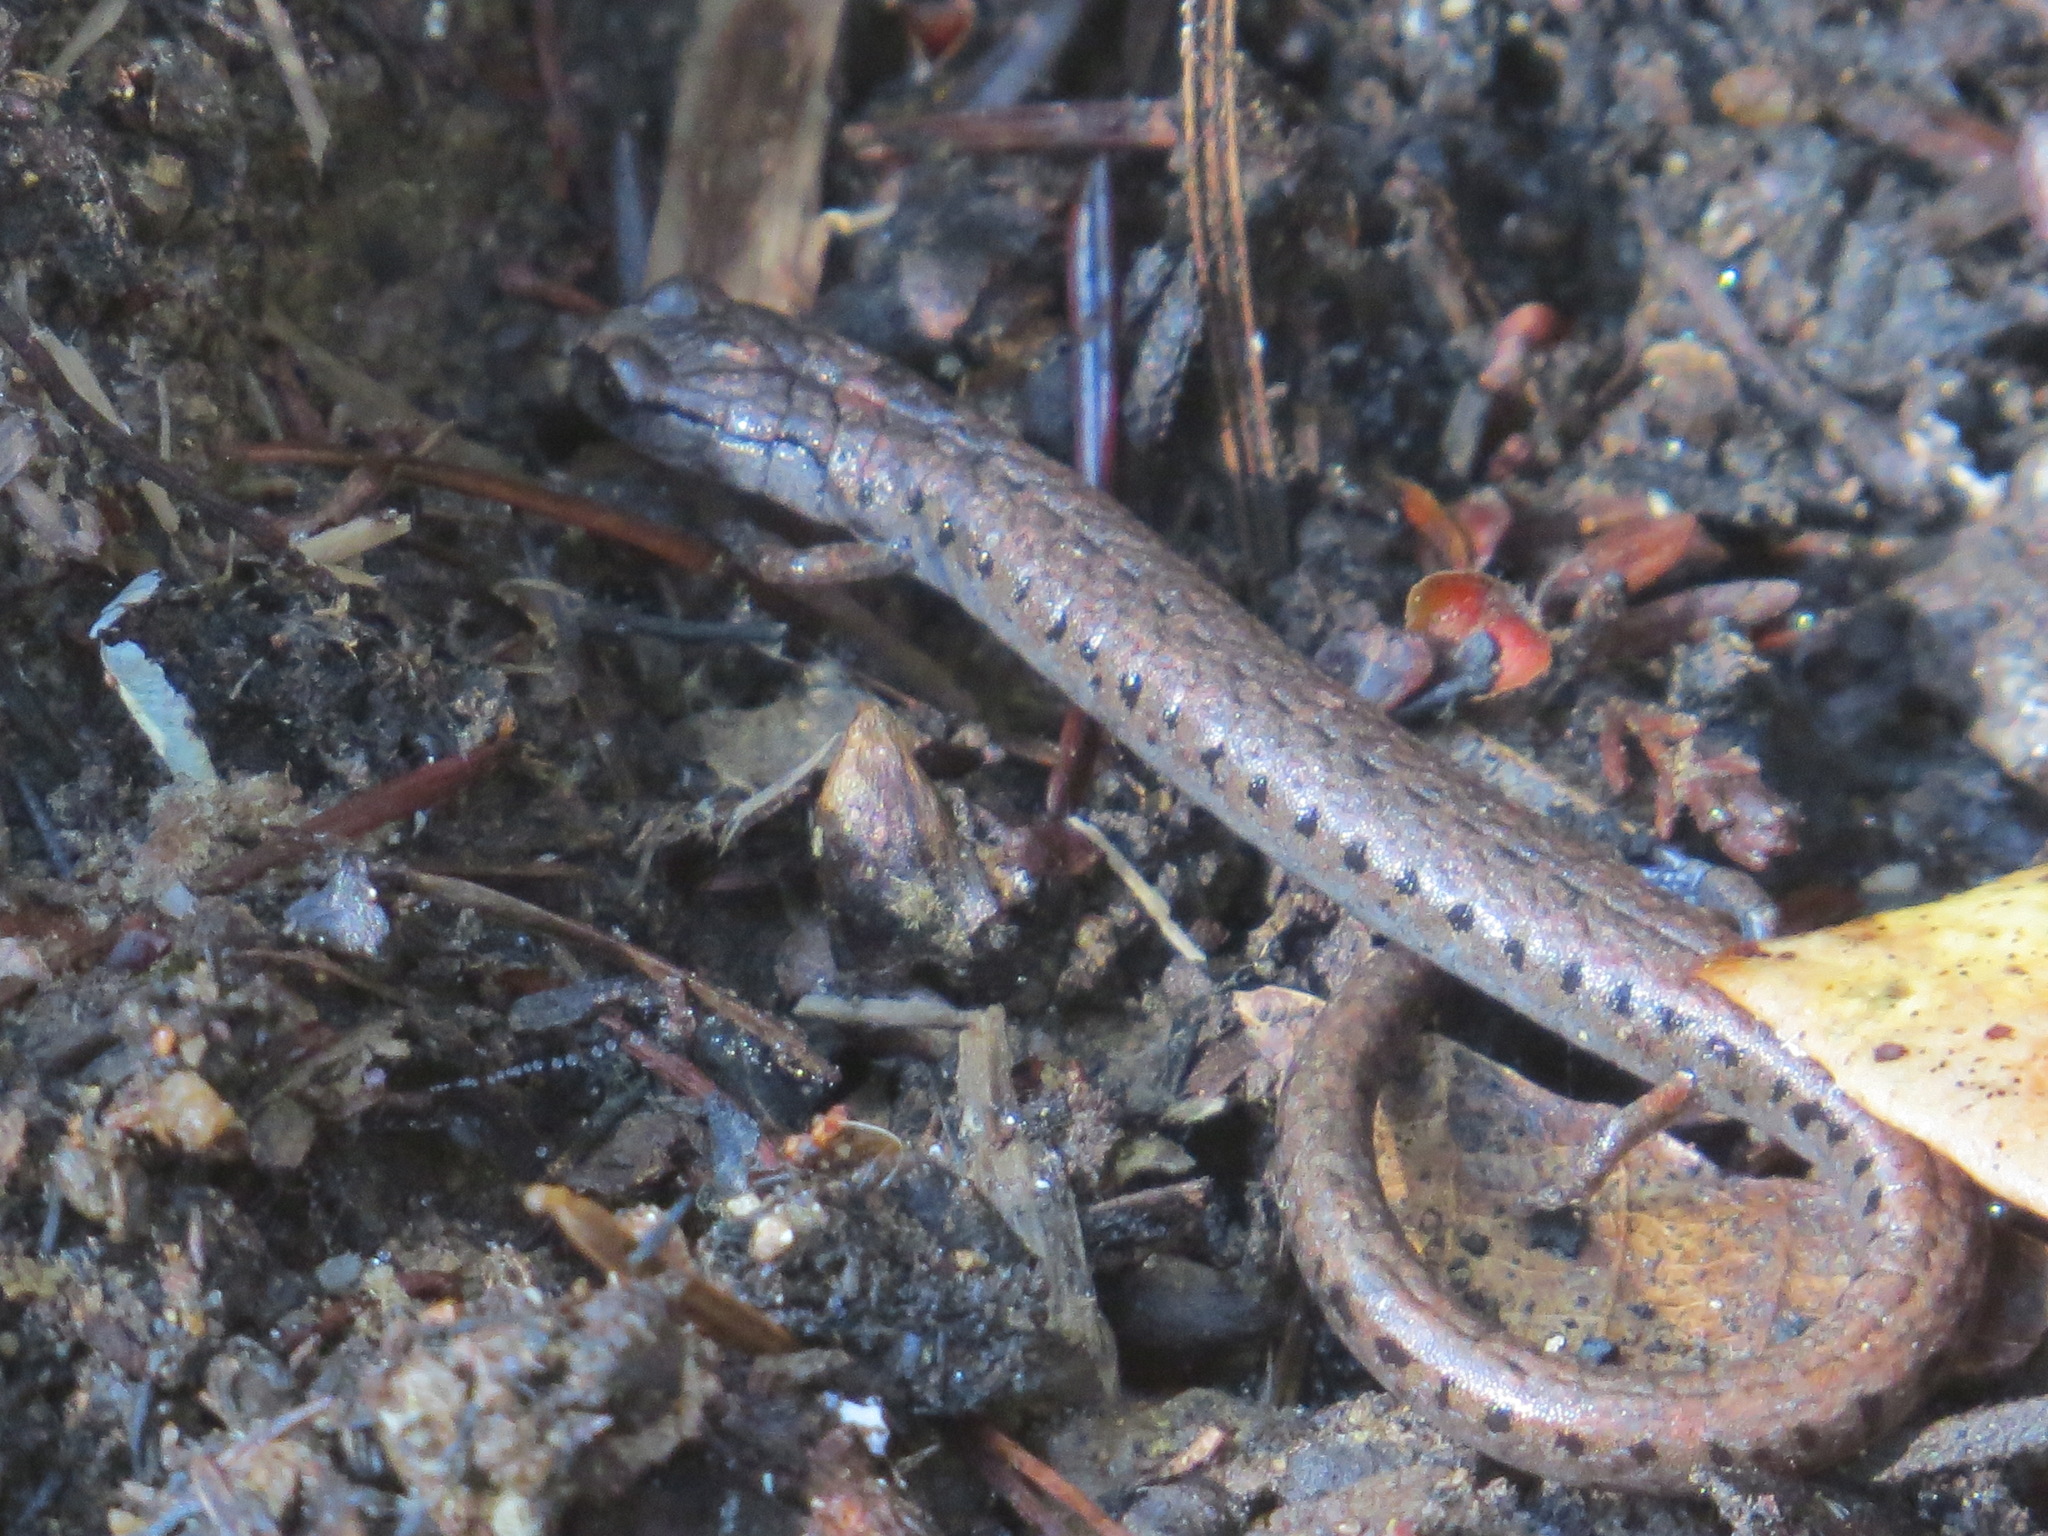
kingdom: Animalia
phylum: Chordata
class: Amphibia
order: Caudata
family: Plethodontidae
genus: Batrachoseps
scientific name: Batrachoseps attenuatus
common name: California slender salamander
